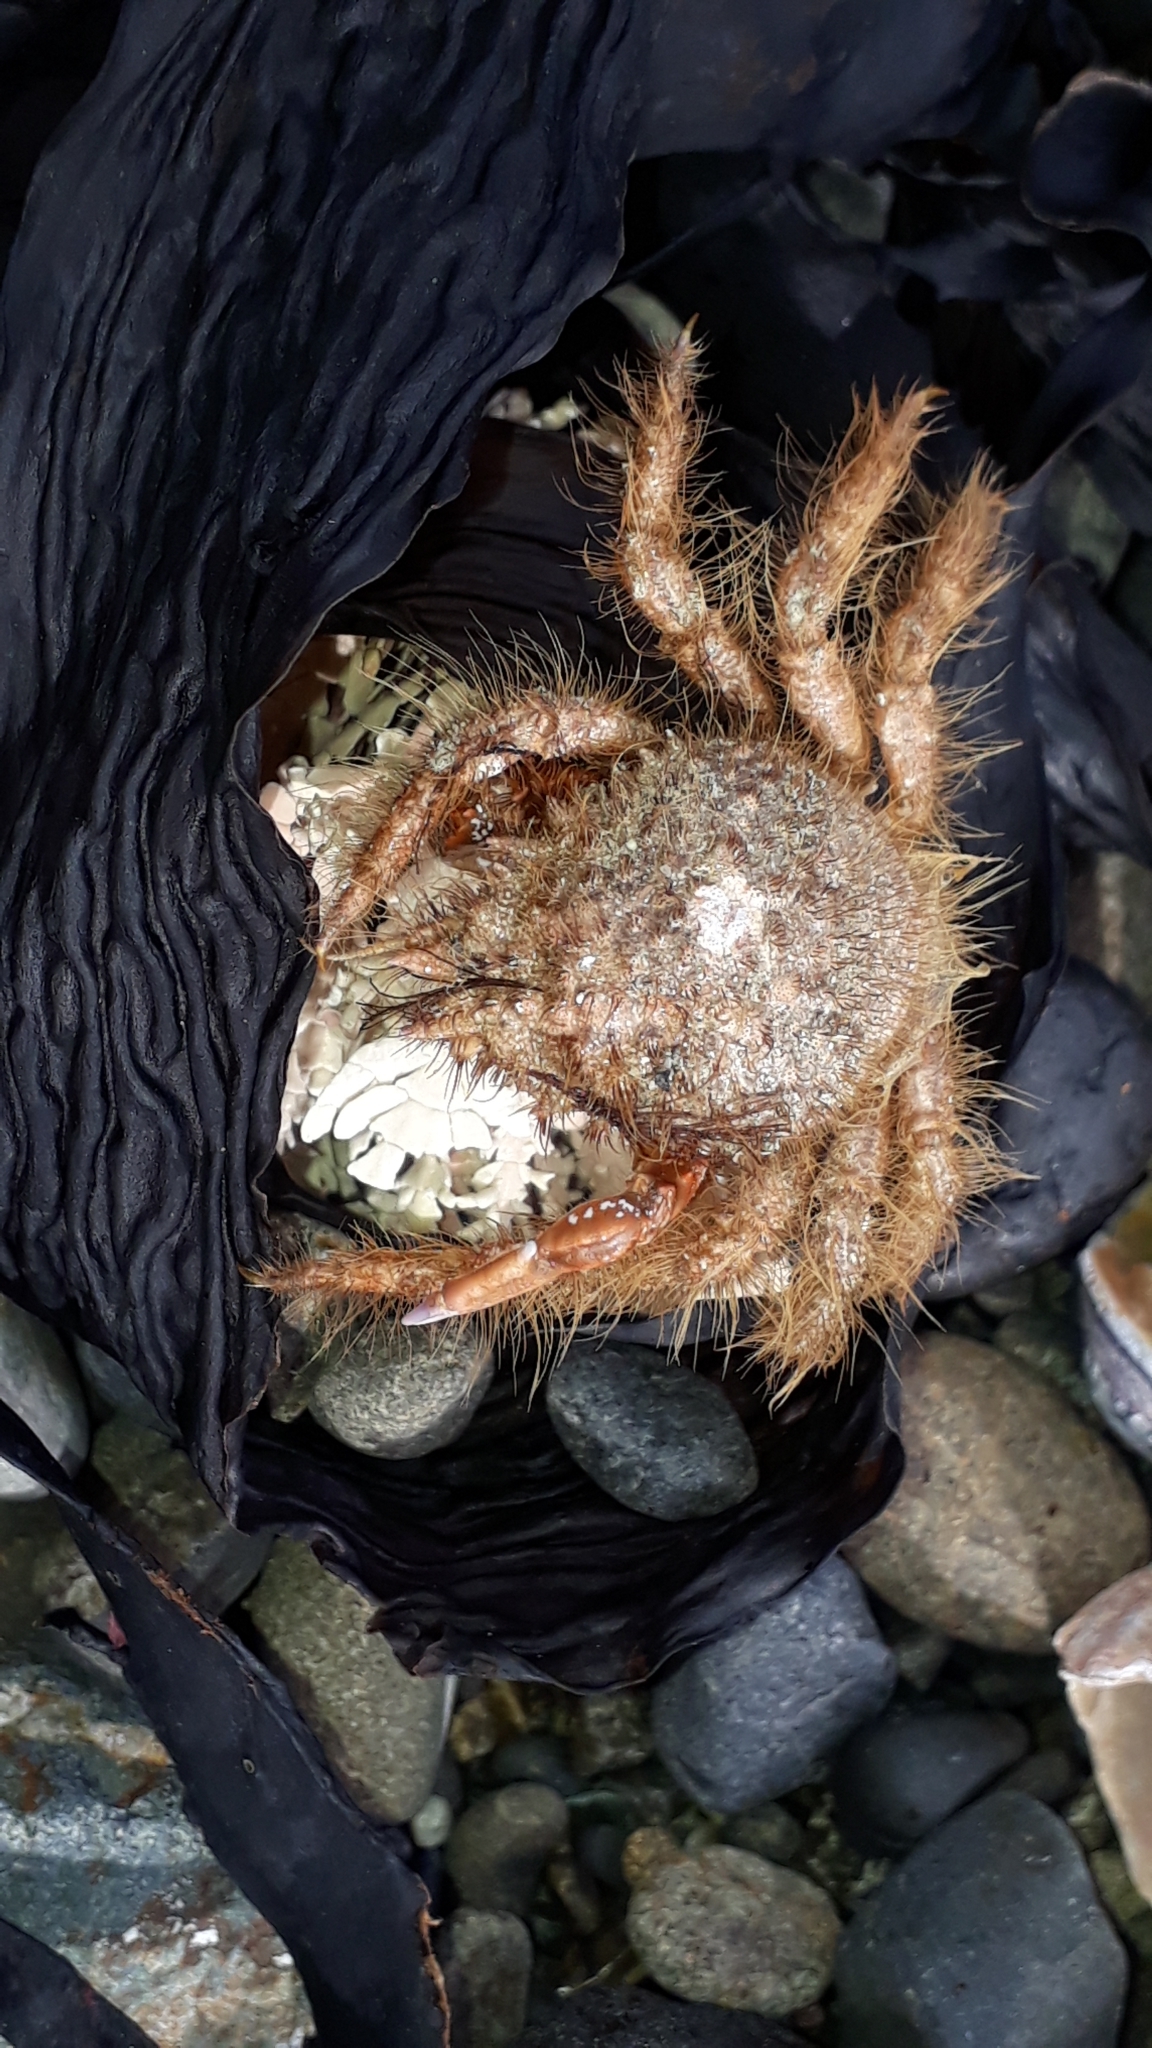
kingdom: Animalia
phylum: Arthropoda
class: Malacostraca
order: Decapoda
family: Majidae
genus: Notomithrax
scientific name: Notomithrax ursus
